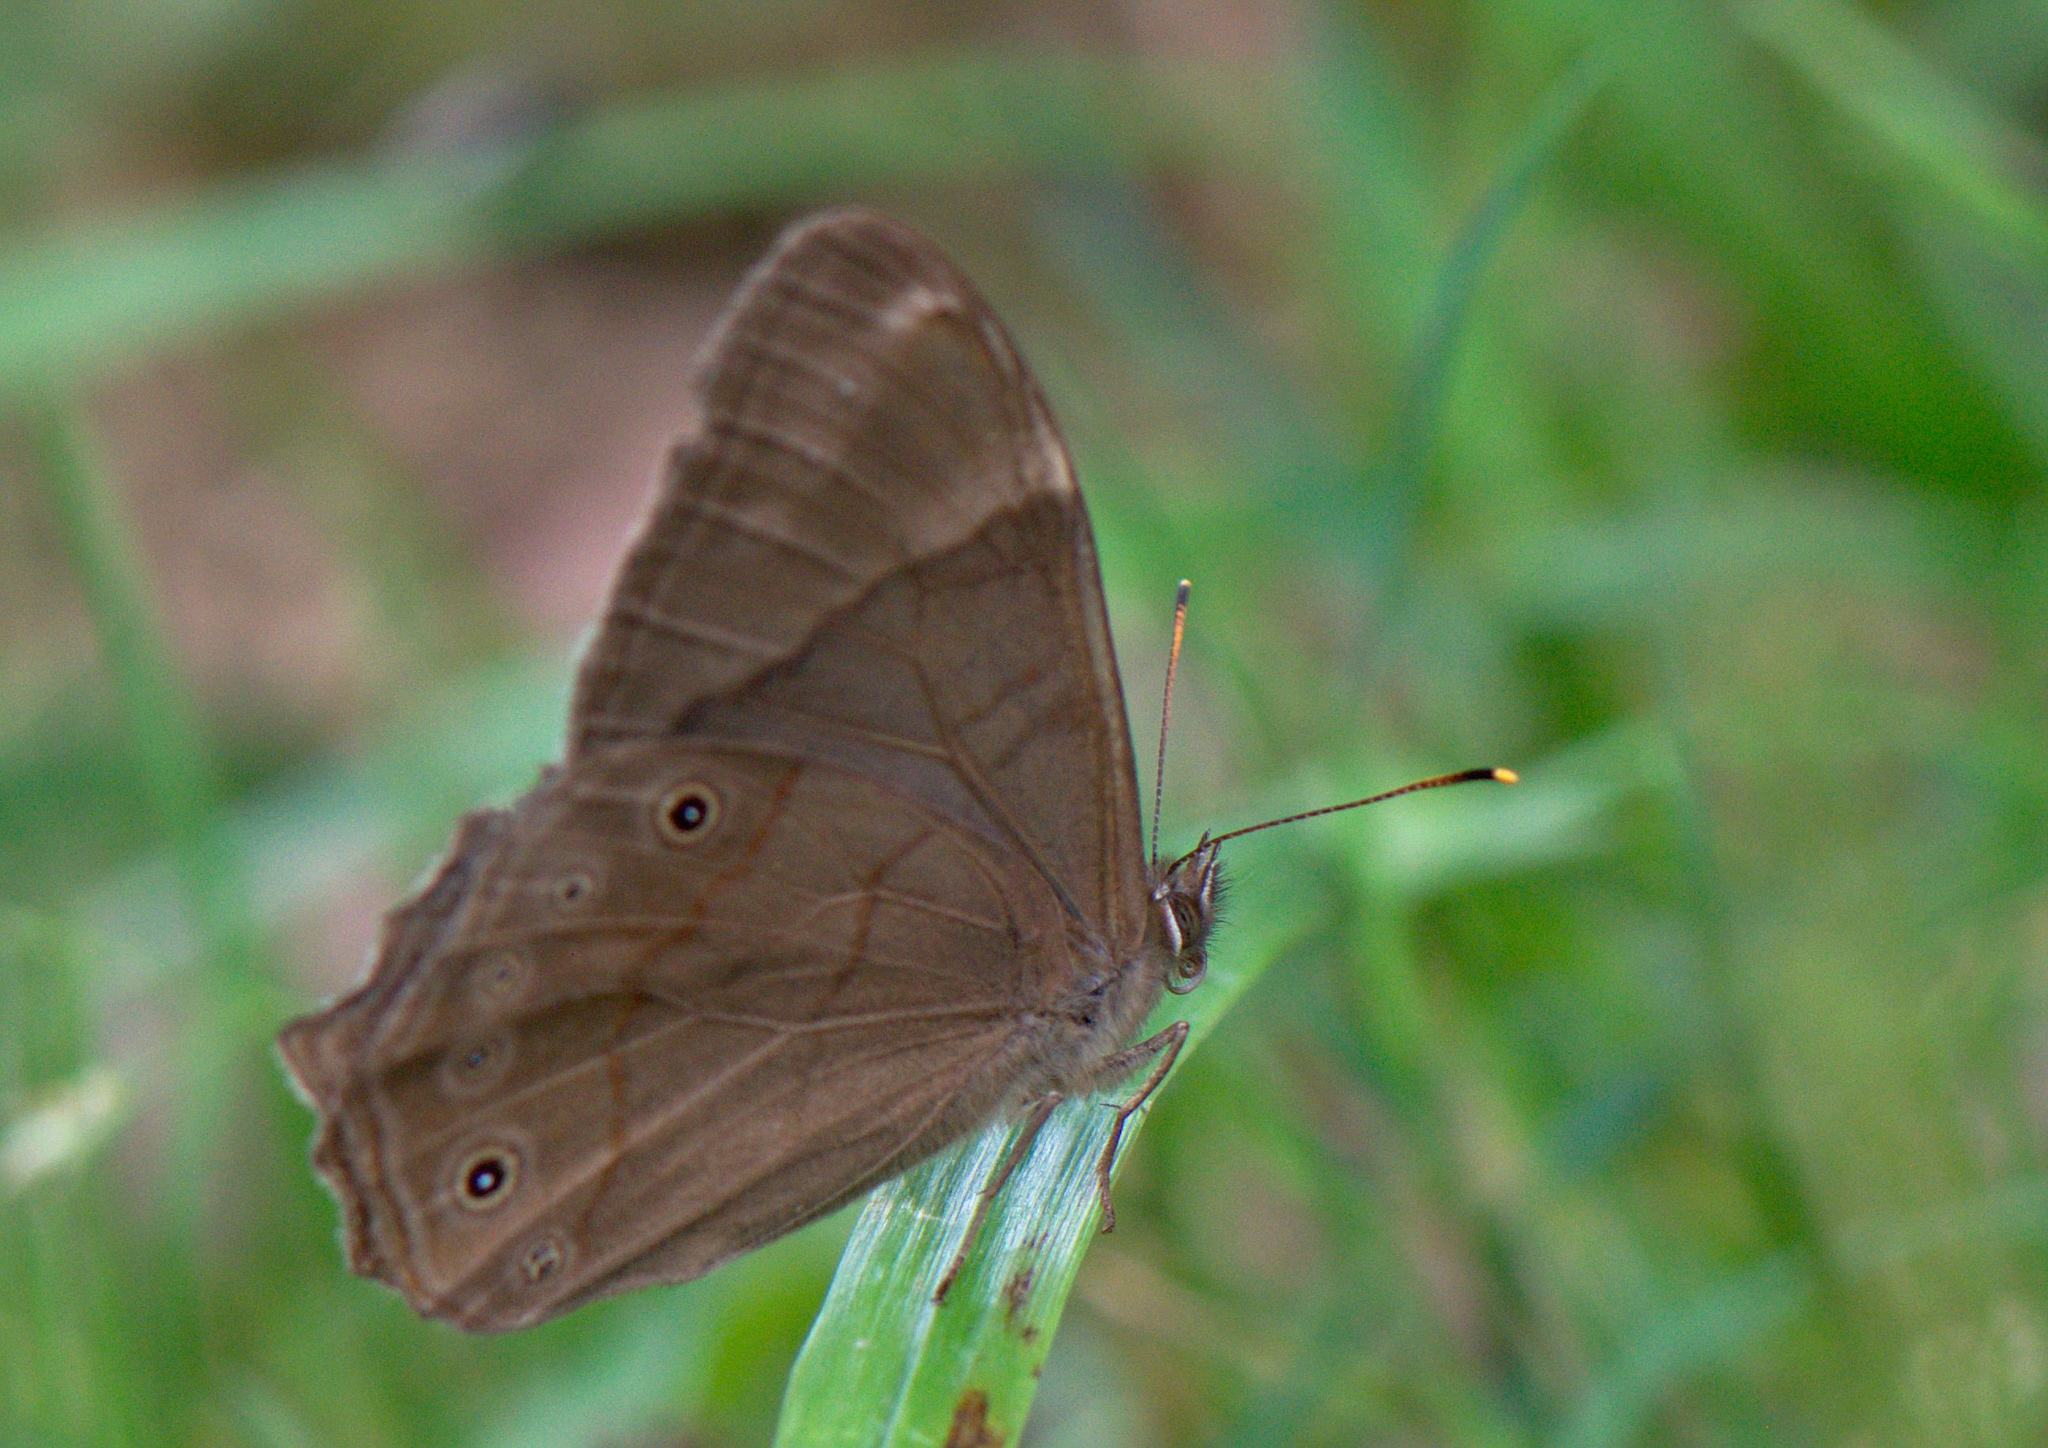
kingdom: Animalia
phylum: Arthropoda
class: Insecta
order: Lepidoptera
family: Nymphalidae
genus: Lethe
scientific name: Lethe
